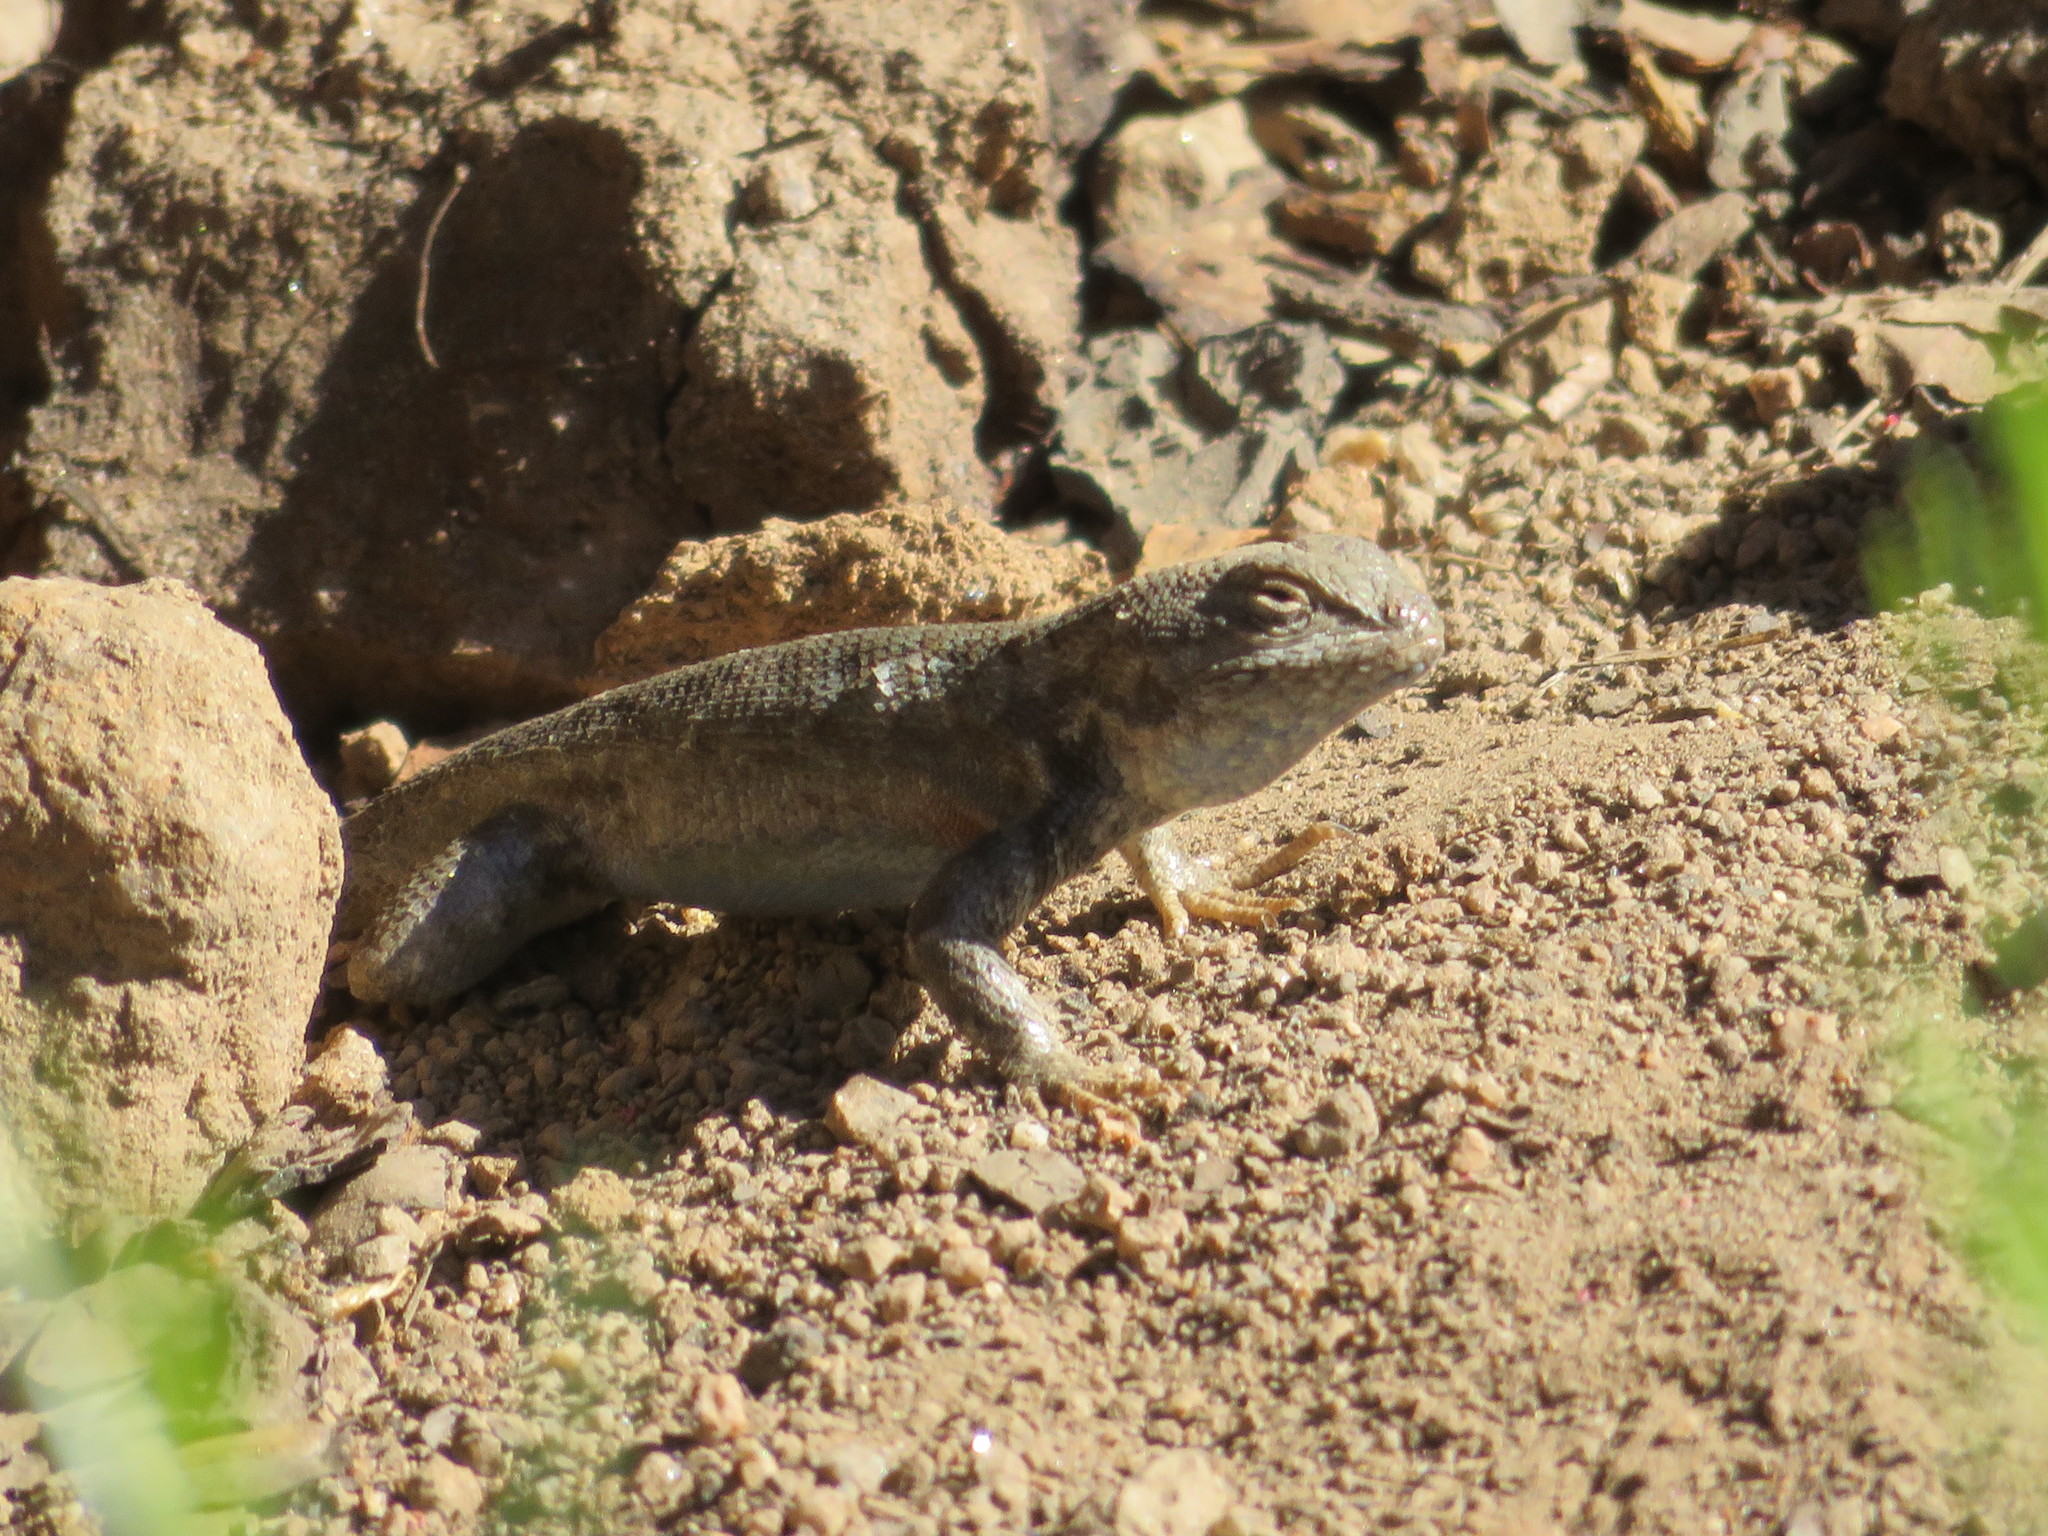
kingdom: Animalia
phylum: Chordata
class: Squamata
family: Phrynosomatidae
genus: Sceloporus
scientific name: Sceloporus graciosus
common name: Sagebrush lizard
